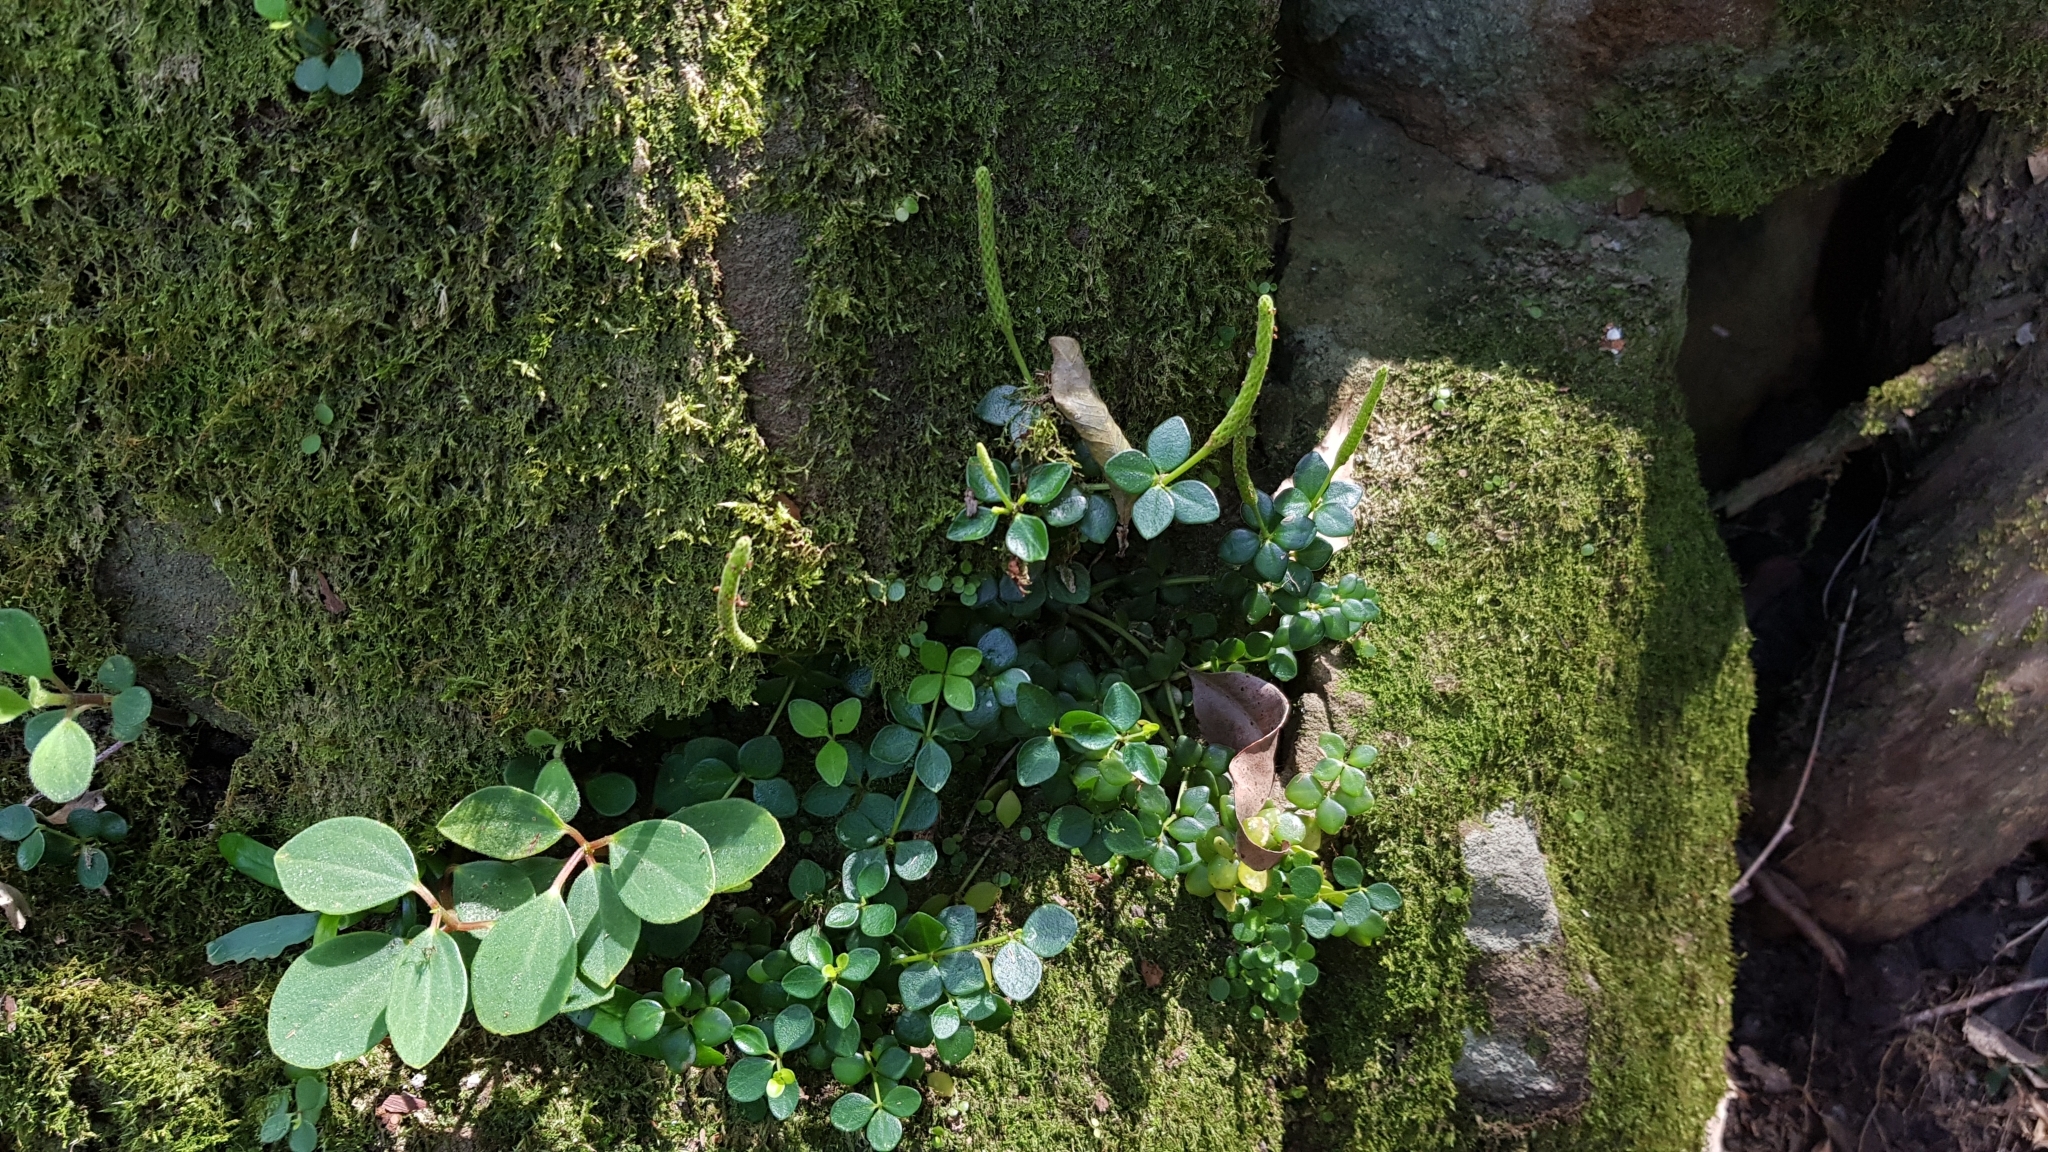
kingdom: Plantae
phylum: Tracheophyta
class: Magnoliopsida
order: Piperales
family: Piperaceae
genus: Peperomia
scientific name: Peperomia tetraphylla
